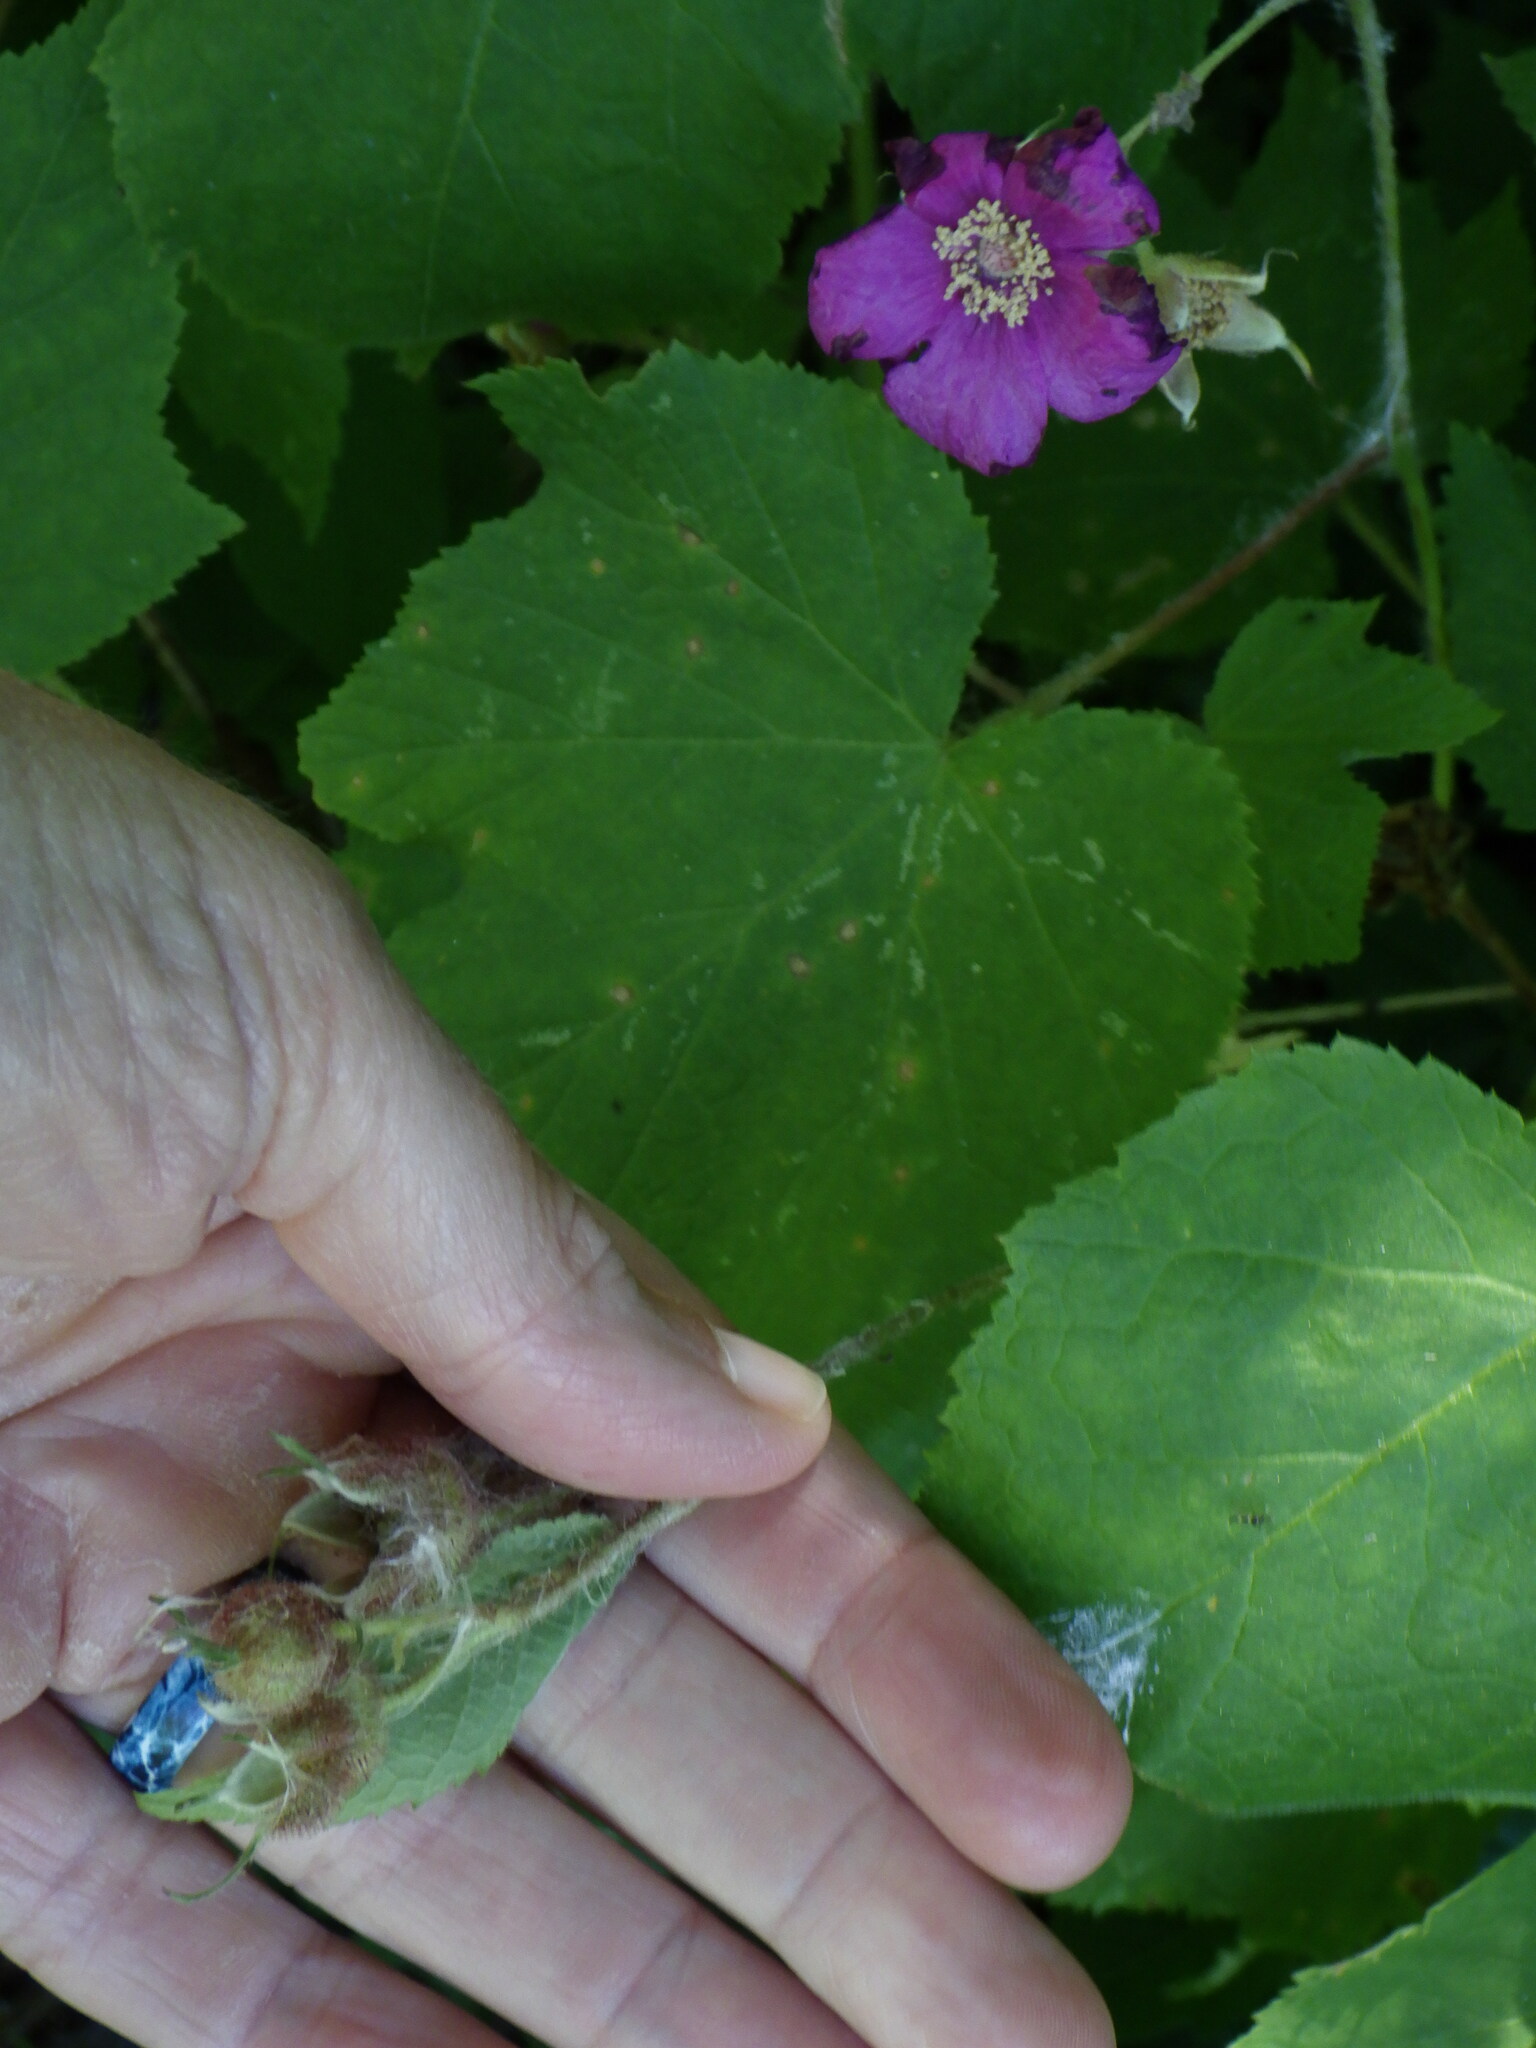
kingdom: Plantae
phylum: Tracheophyta
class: Magnoliopsida
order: Rosales
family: Rosaceae
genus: Rubus
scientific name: Rubus odoratus
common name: Purple-flowered raspberry
